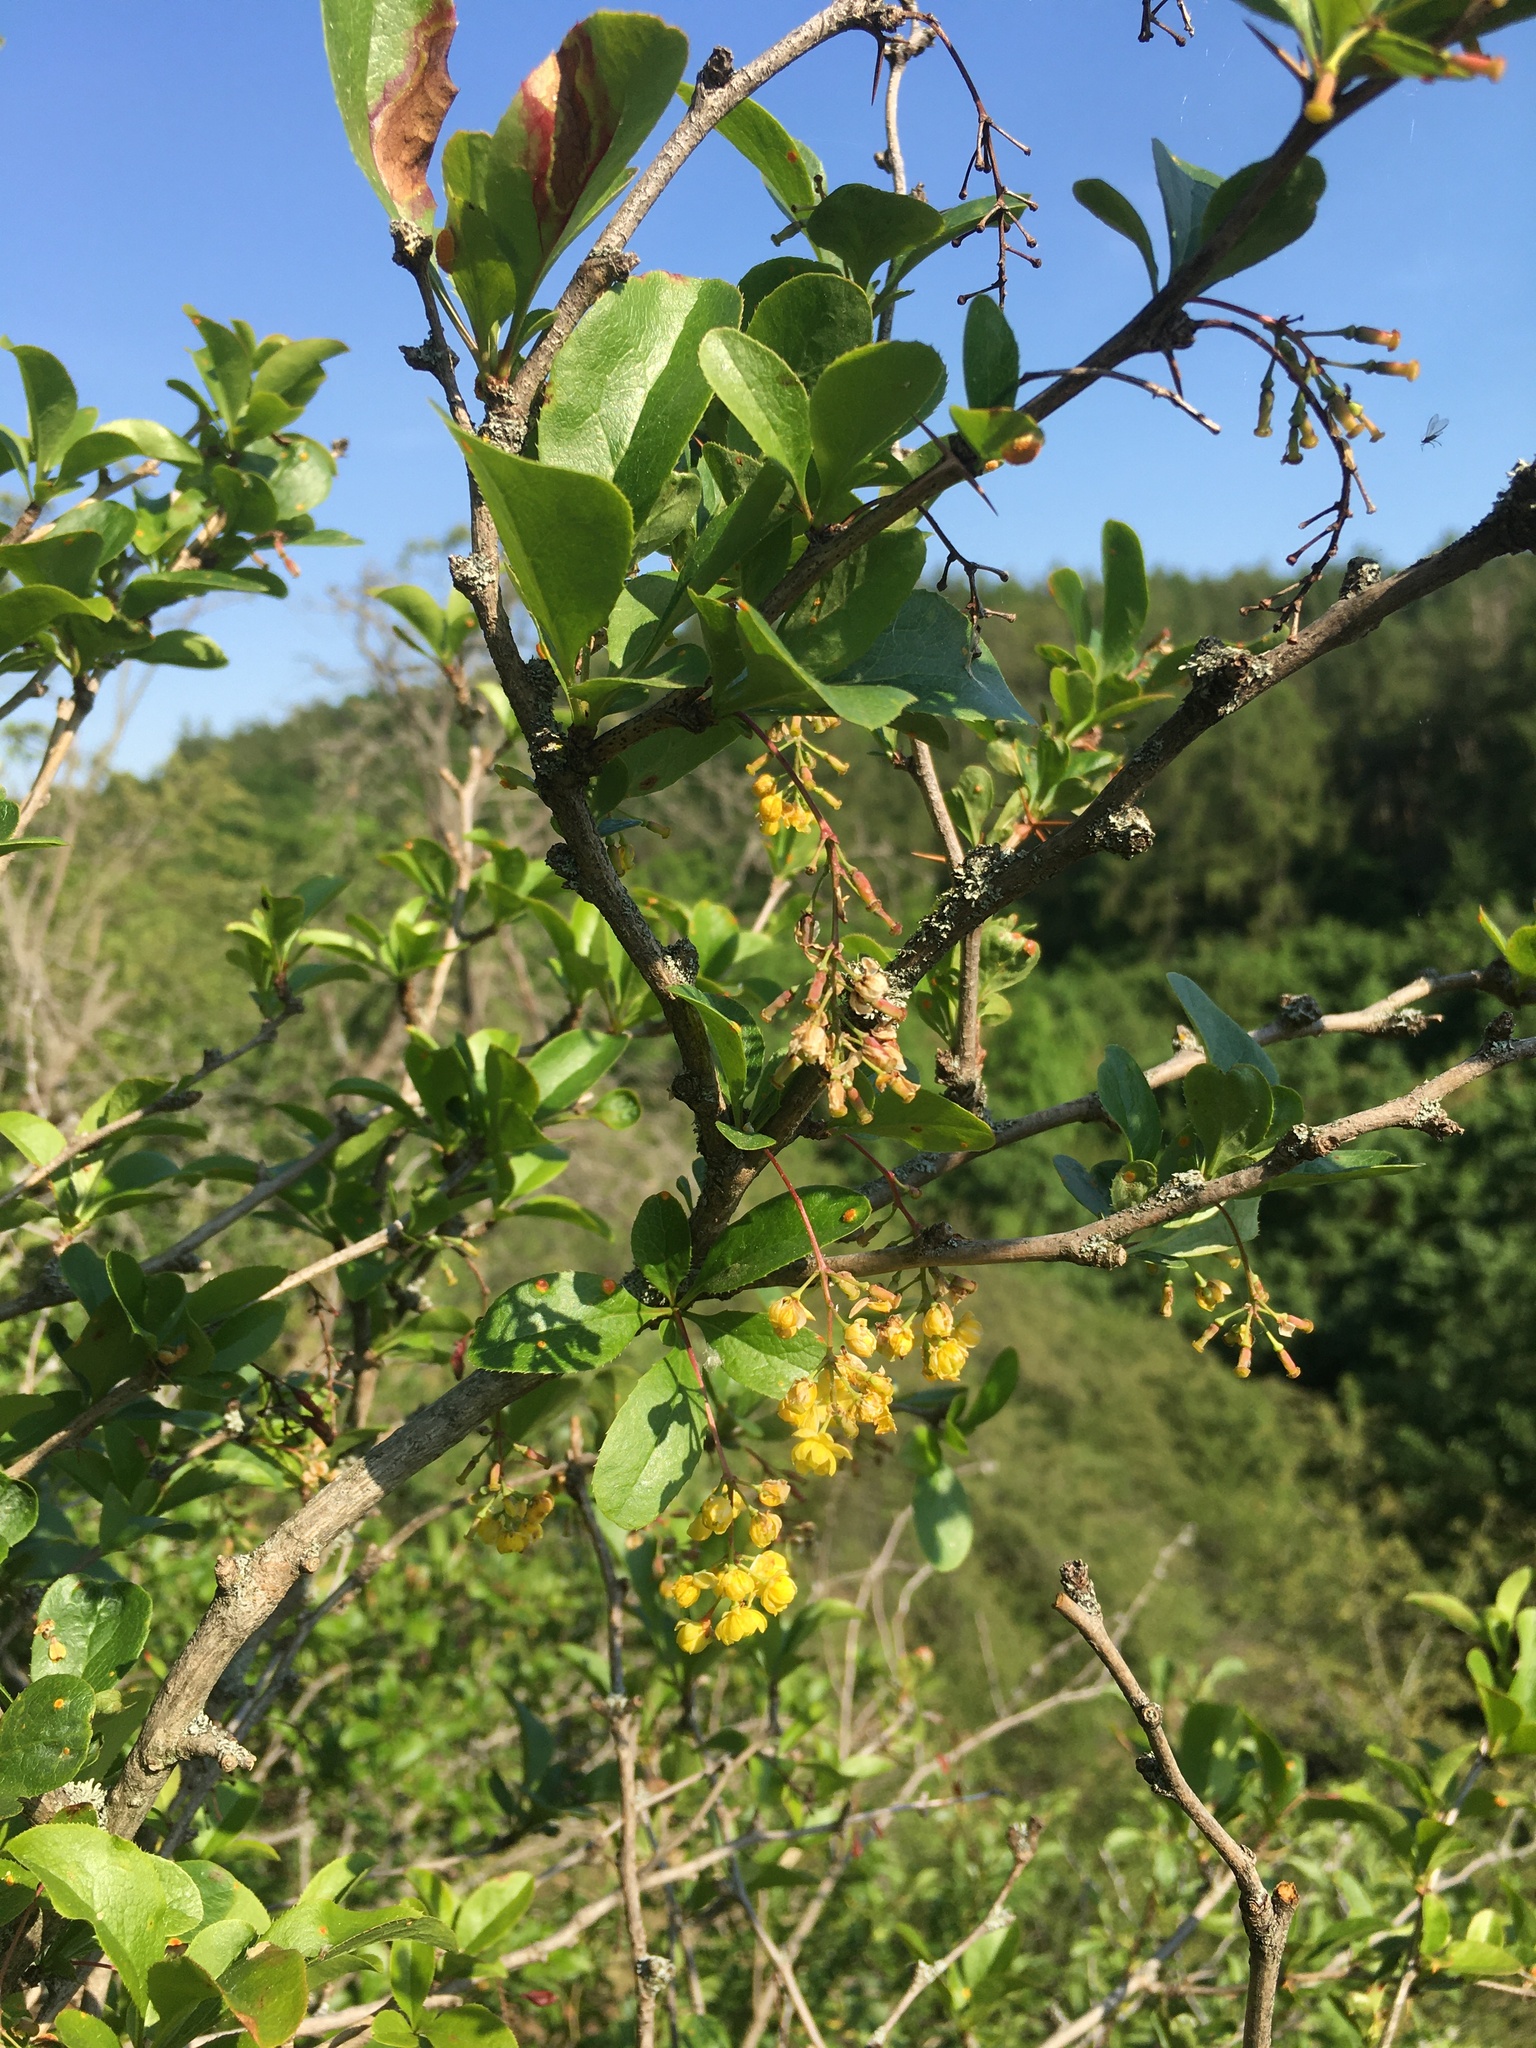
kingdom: Plantae
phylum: Tracheophyta
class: Magnoliopsida
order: Ranunculales
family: Berberidaceae
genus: Berberis
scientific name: Berberis vulgaris
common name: Barberry
